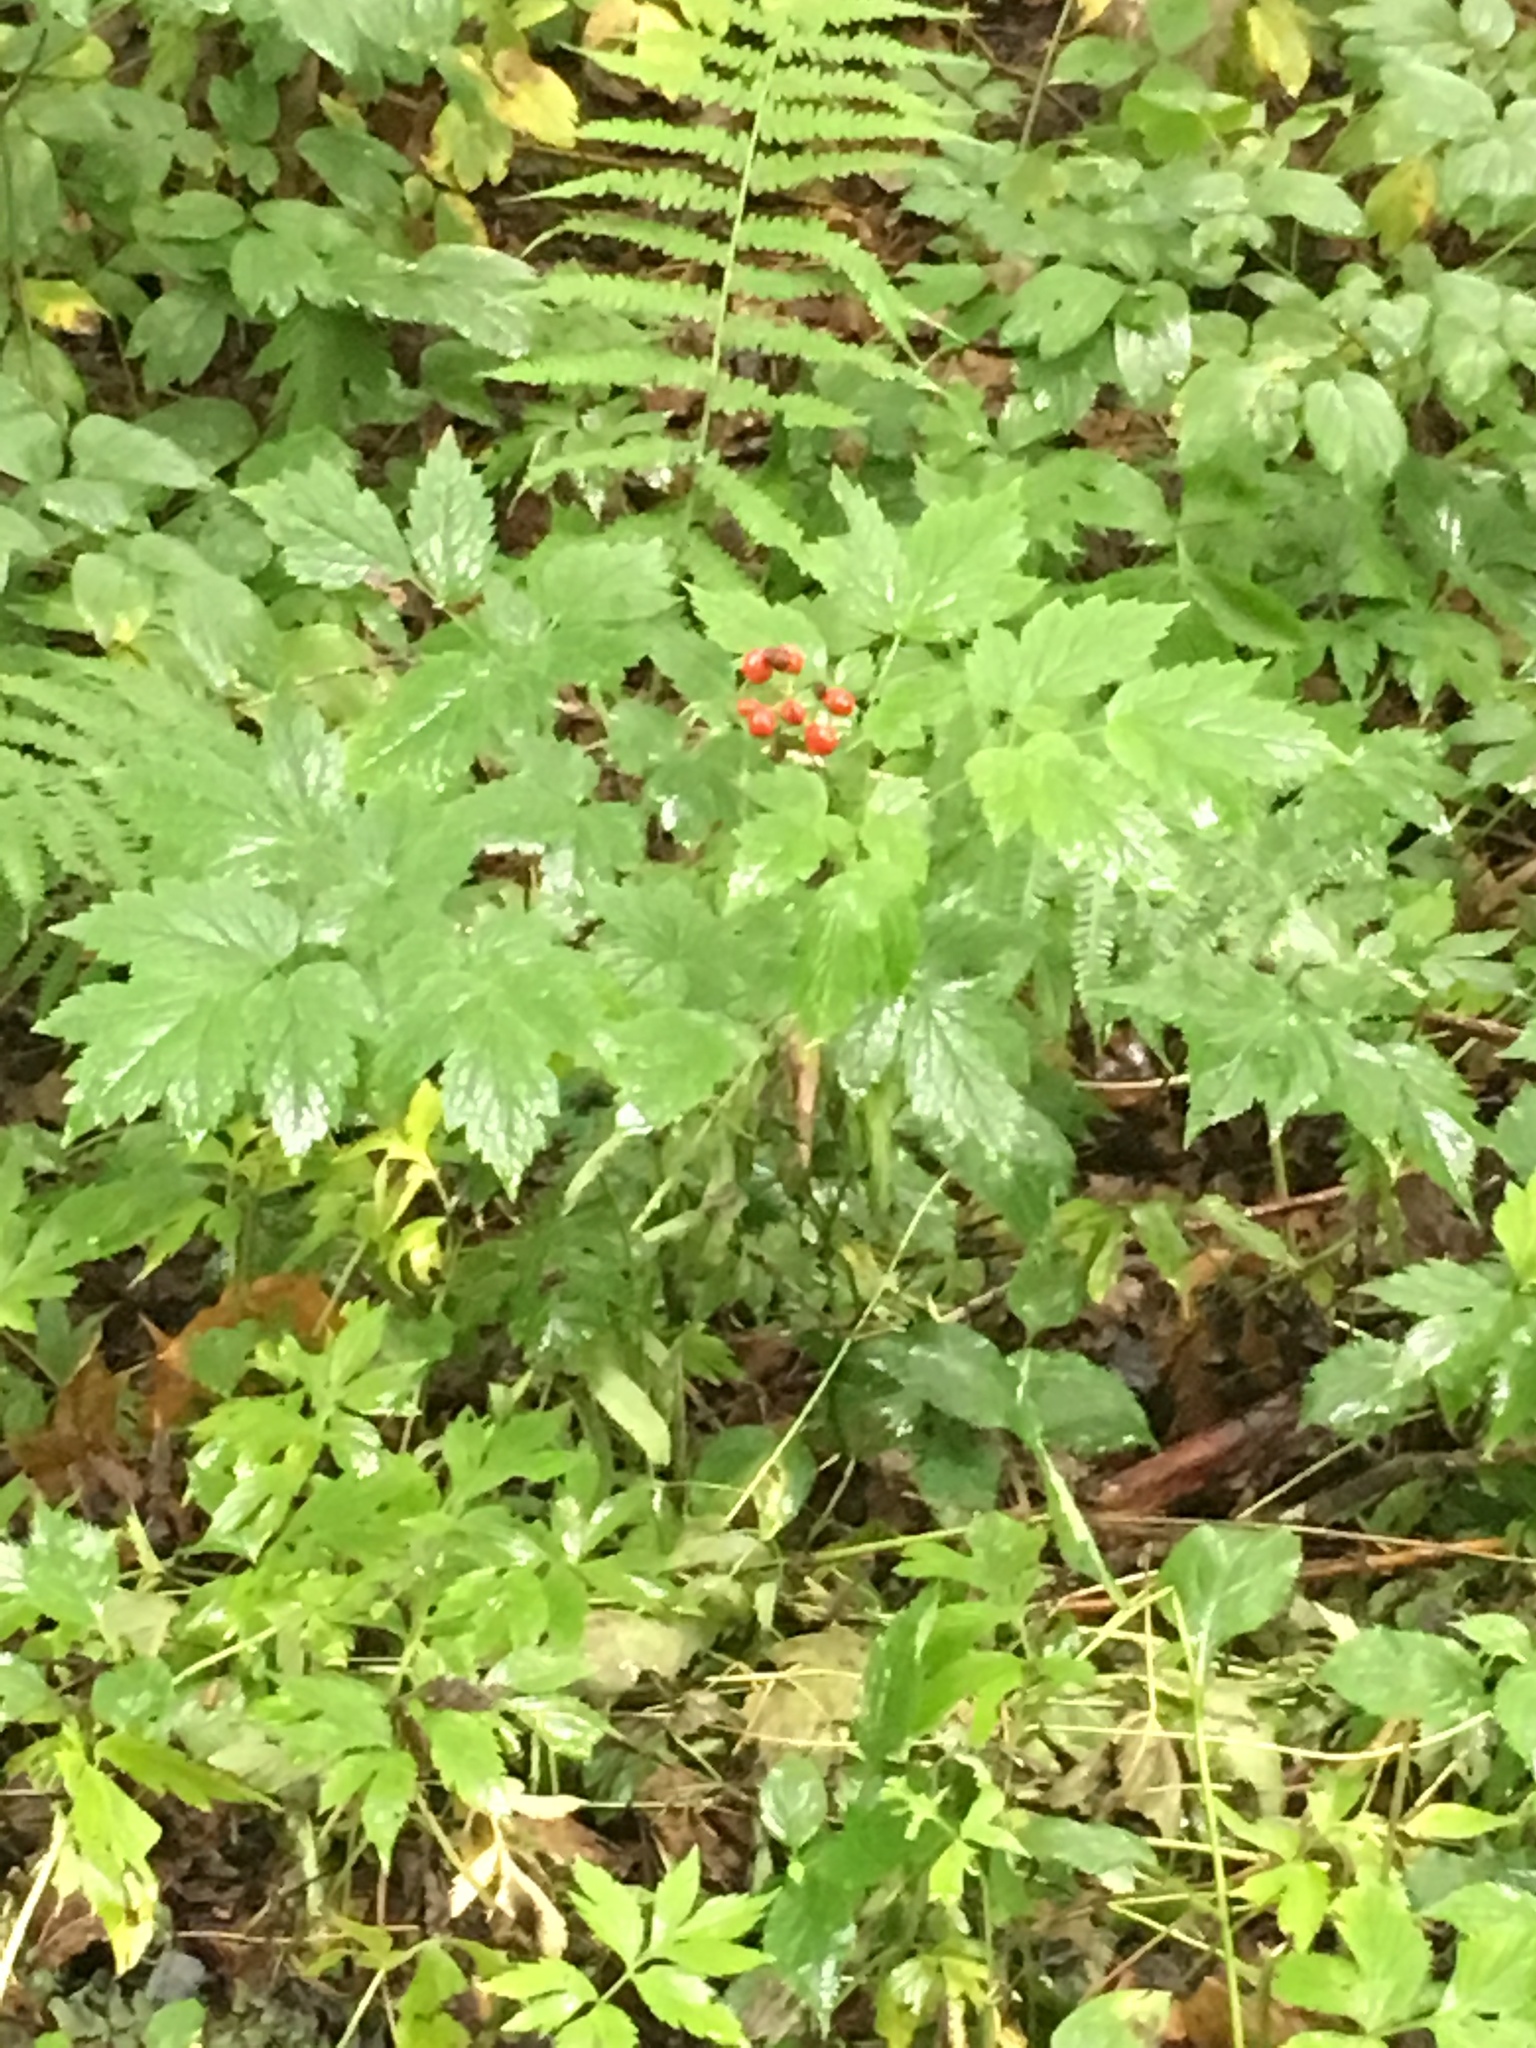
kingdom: Plantae
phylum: Tracheophyta
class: Magnoliopsida
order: Ranunculales
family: Ranunculaceae
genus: Actaea
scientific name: Actaea rubra
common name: Red baneberry
